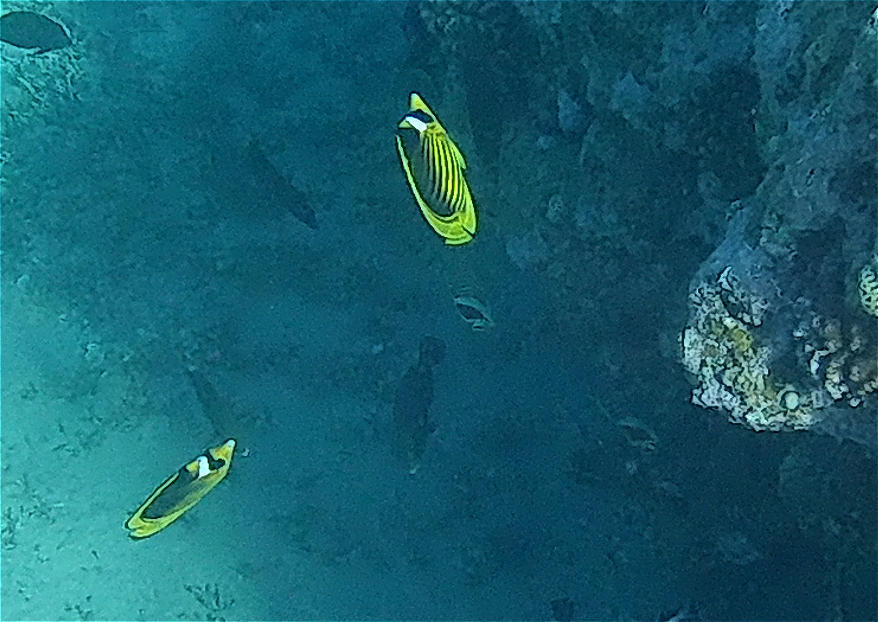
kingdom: Animalia
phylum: Chordata
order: Perciformes
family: Chaetodontidae
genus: Chaetodon
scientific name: Chaetodon fasciatus
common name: Diagonal butterflyfish
